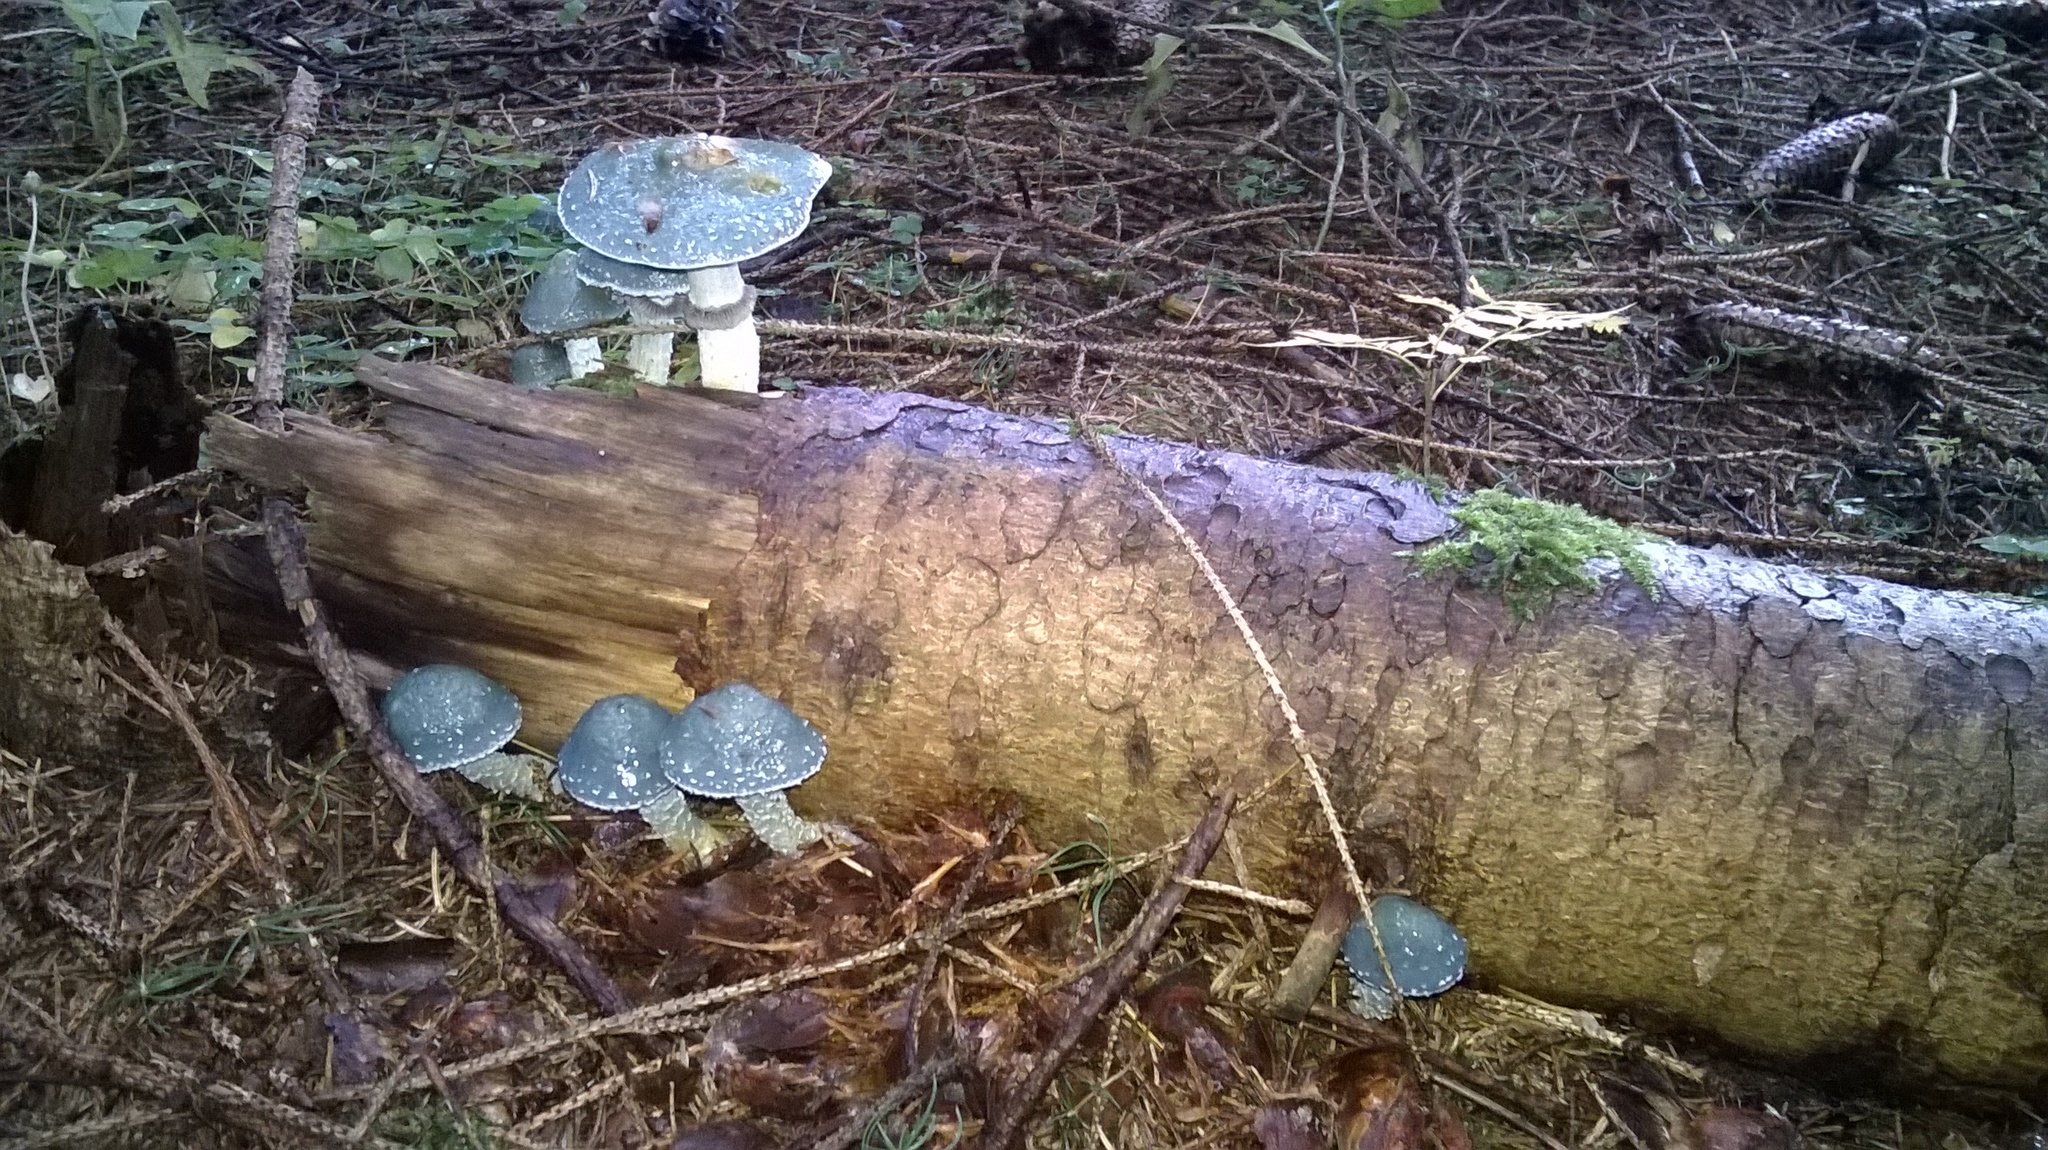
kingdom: Fungi
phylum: Basidiomycota
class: Agaricomycetes
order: Agaricales
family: Strophariaceae
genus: Stropharia
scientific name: Stropharia aeruginosa
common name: Verdigris roundhead
